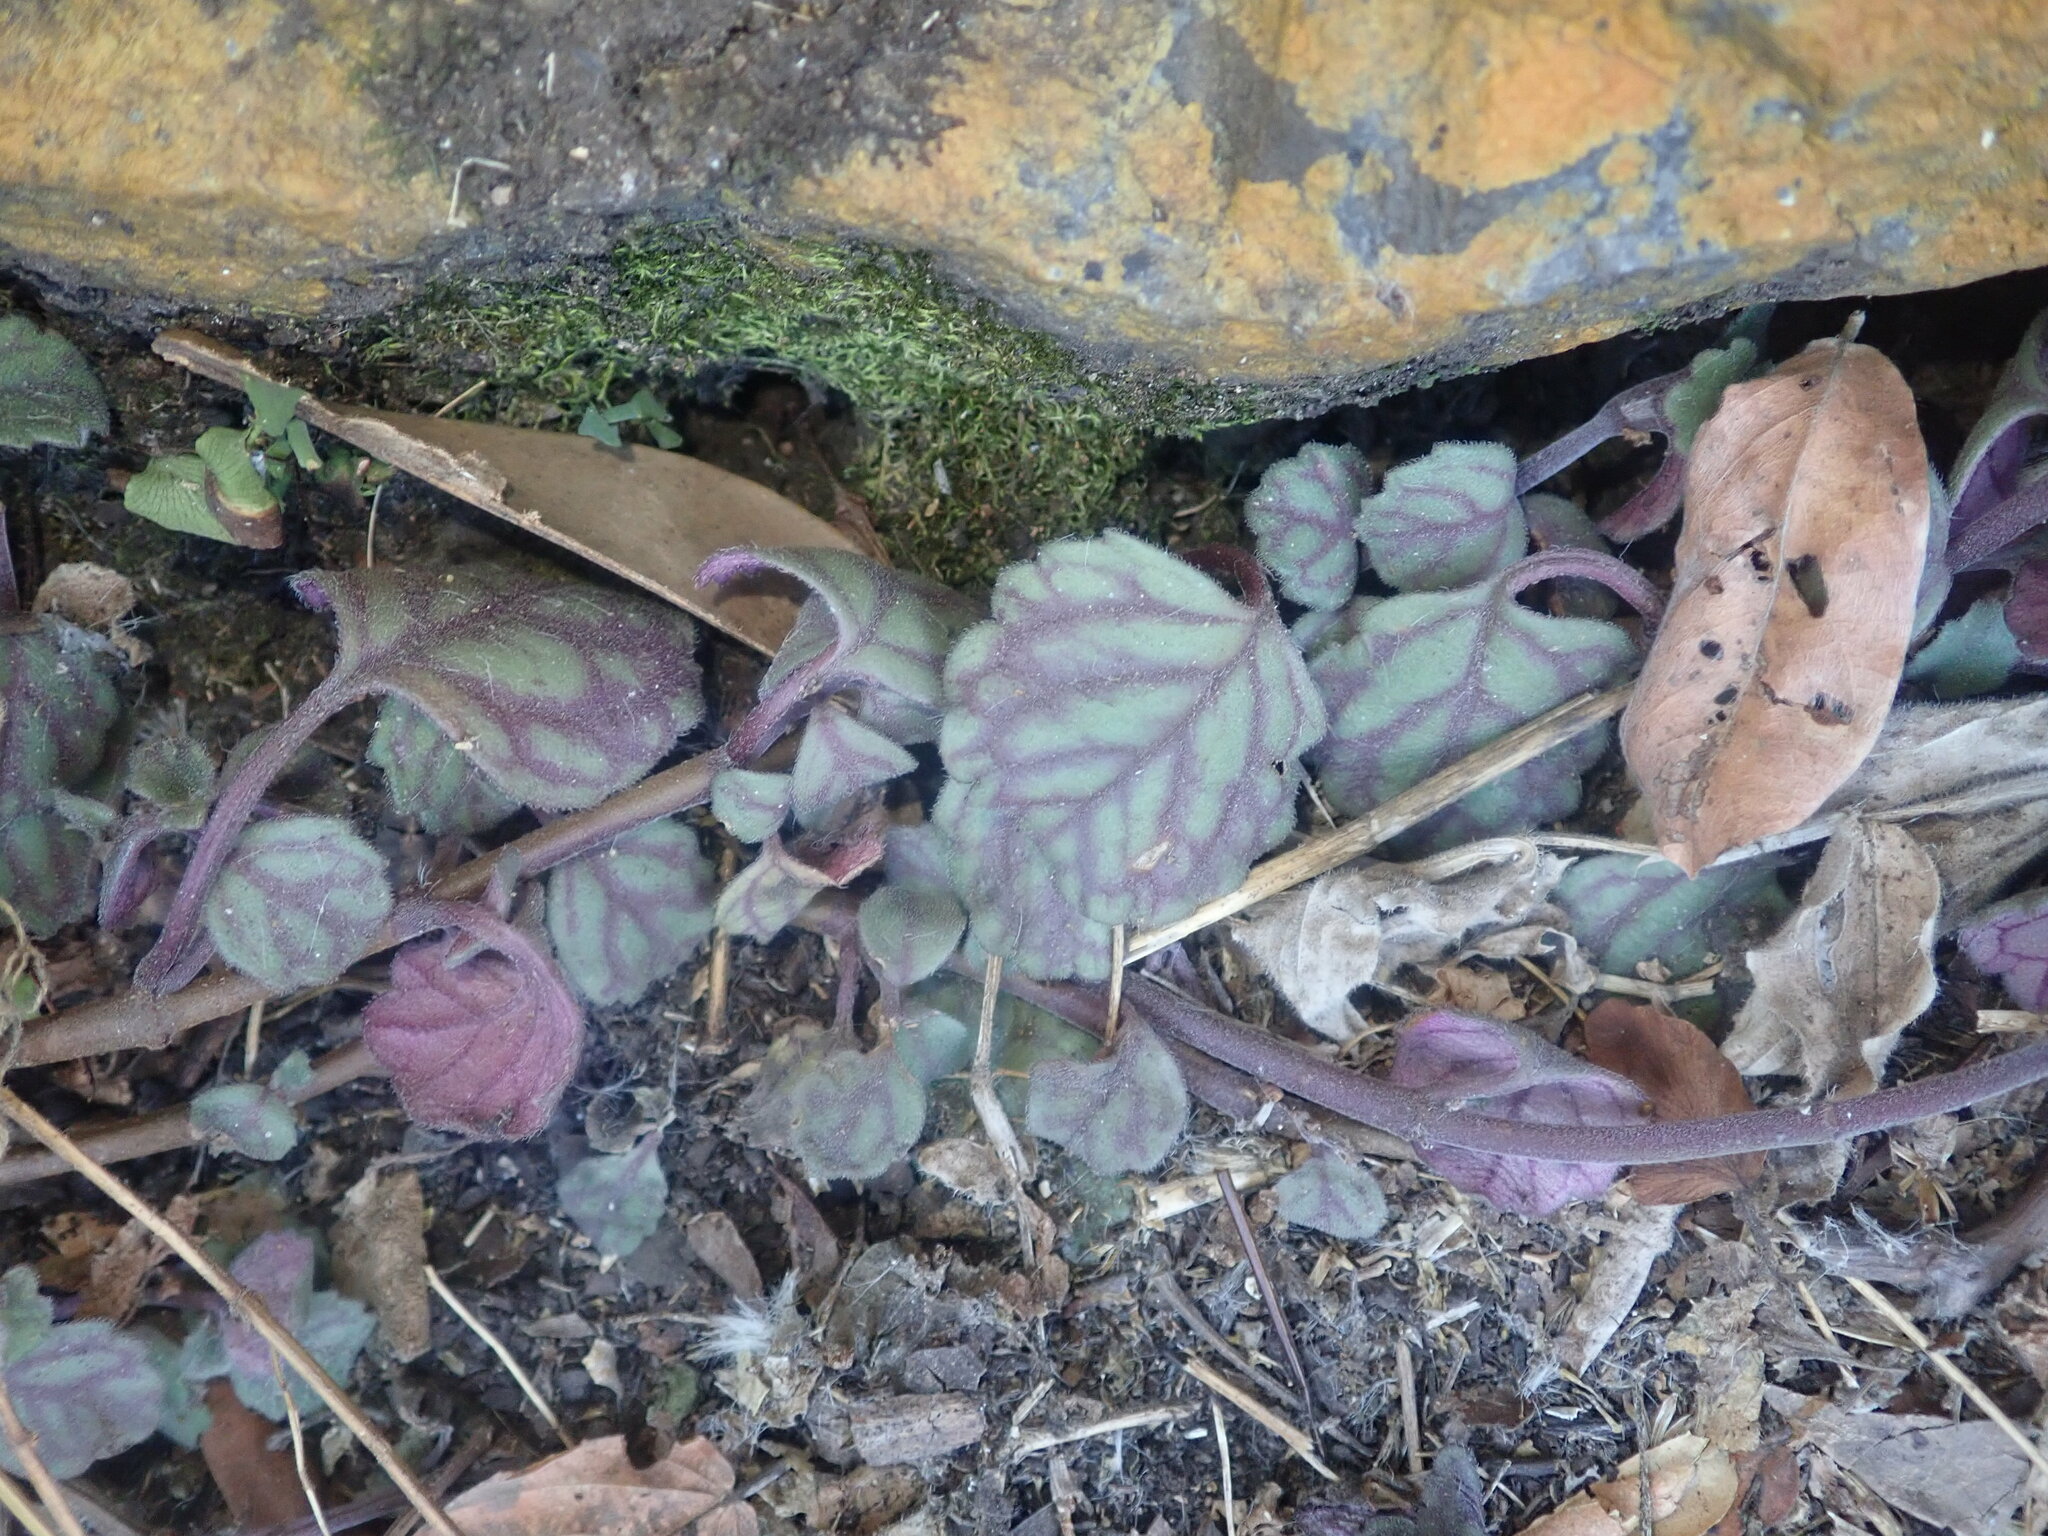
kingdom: Plantae
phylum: Tracheophyta
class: Magnoliopsida
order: Lamiales
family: Lamiaceae
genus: Plectranthus
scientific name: Plectranthus verticillatus
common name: Whorled plectranthus
